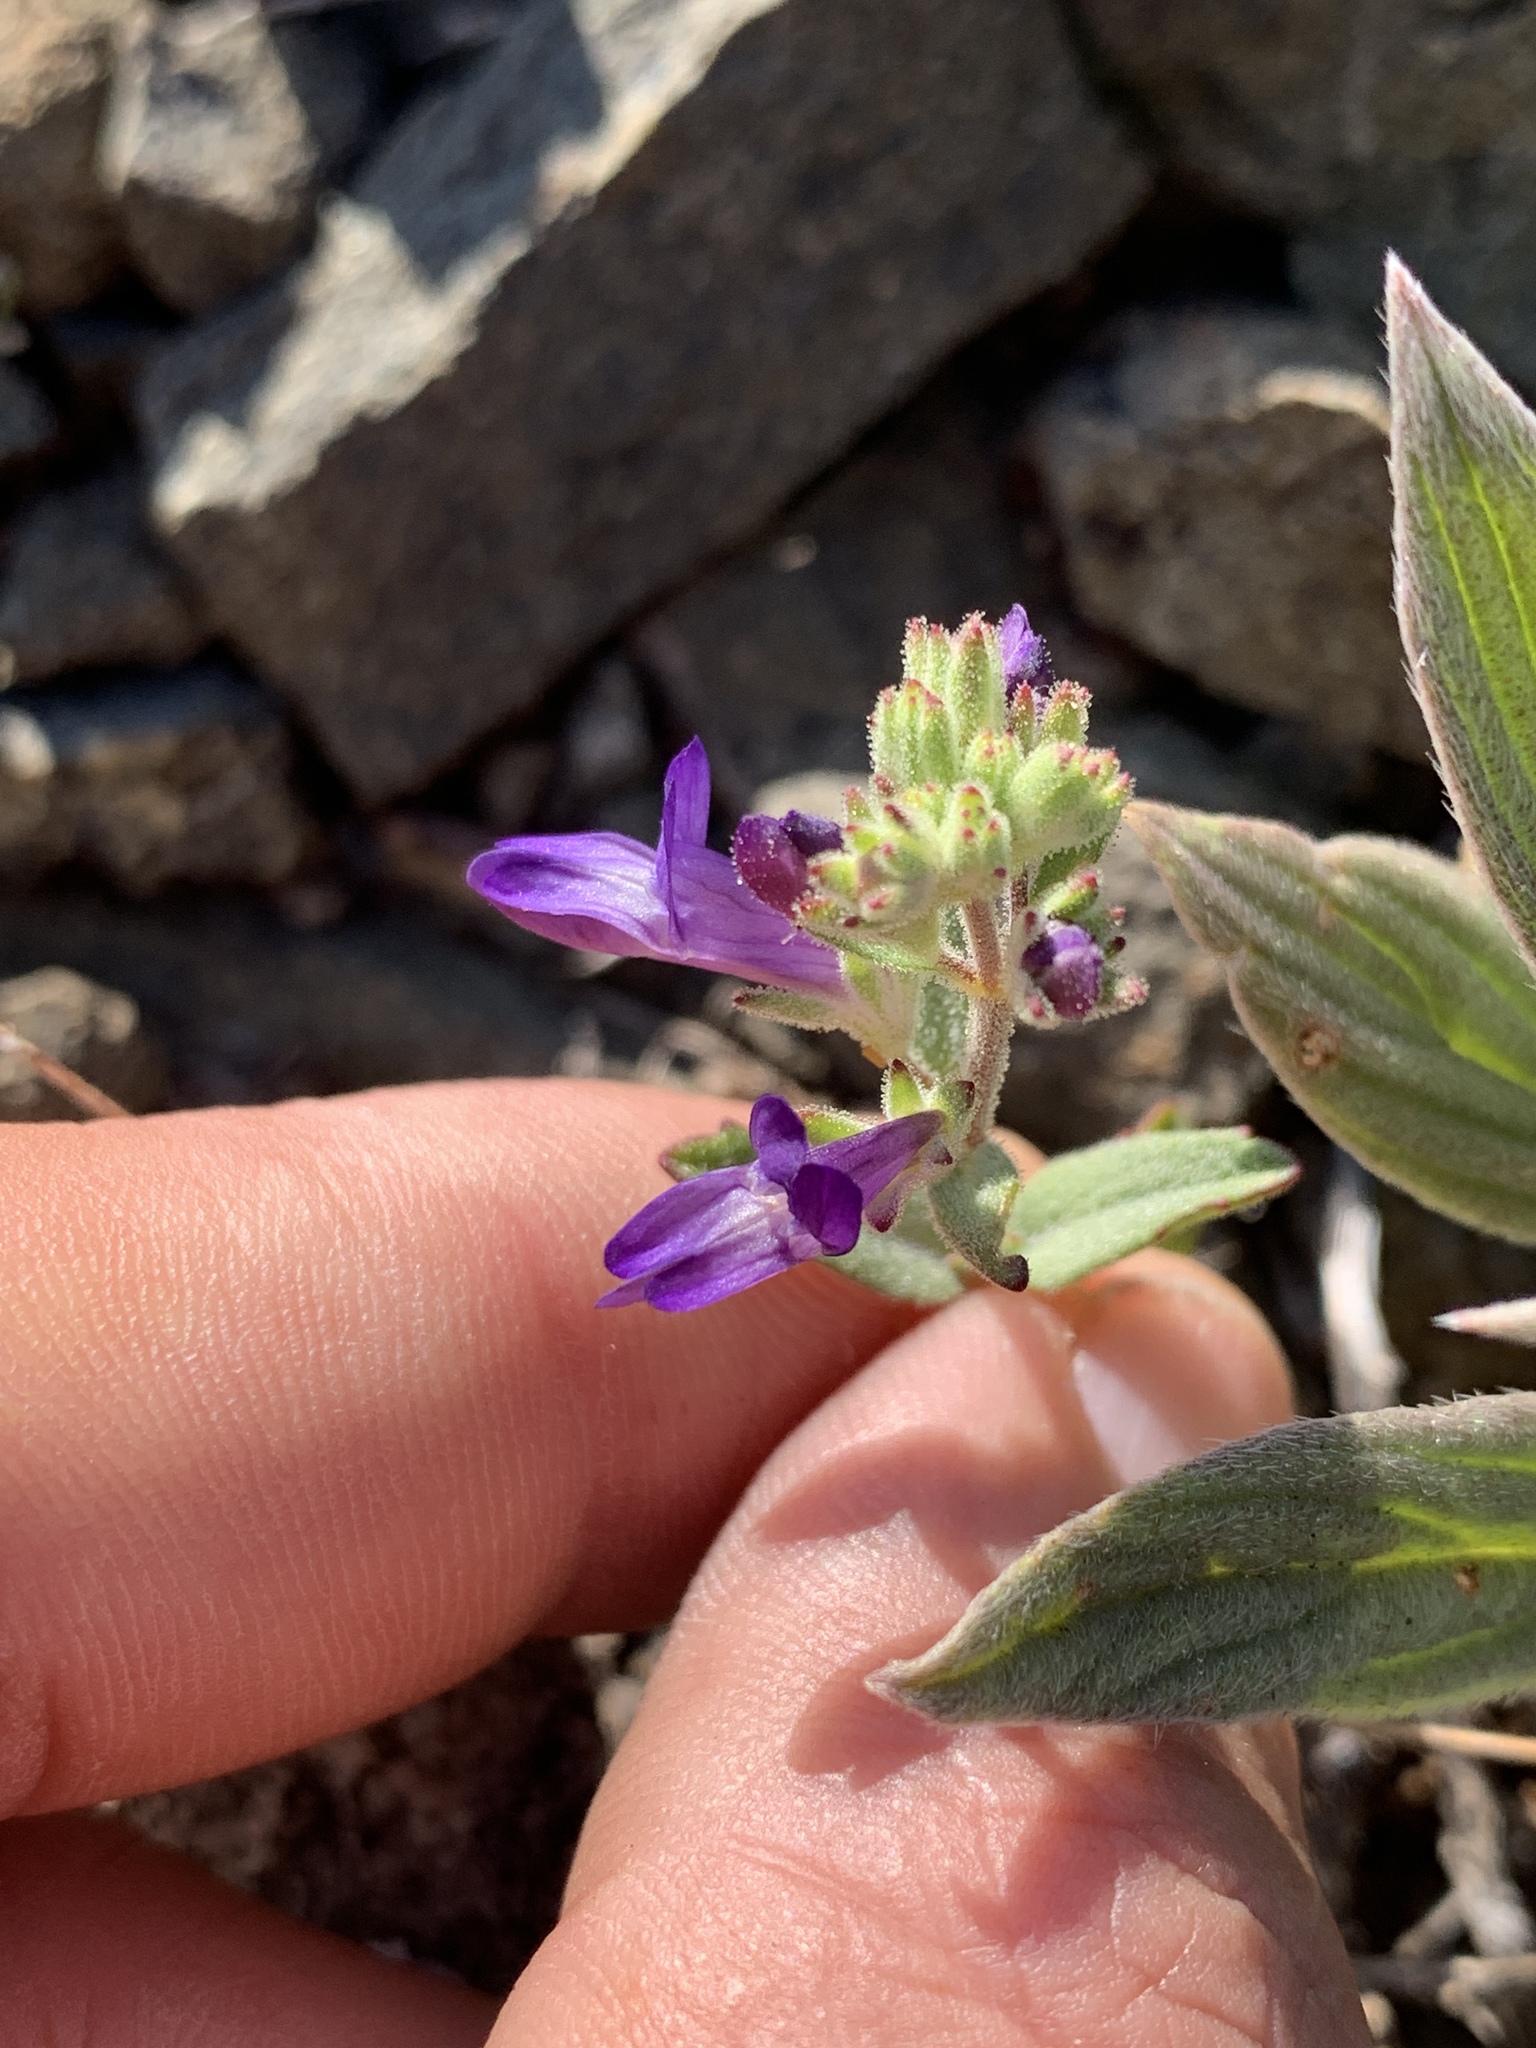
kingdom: Plantae
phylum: Tracheophyta
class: Magnoliopsida
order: Lamiales
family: Plantaginaceae
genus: Collinsia
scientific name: Collinsia greenei
